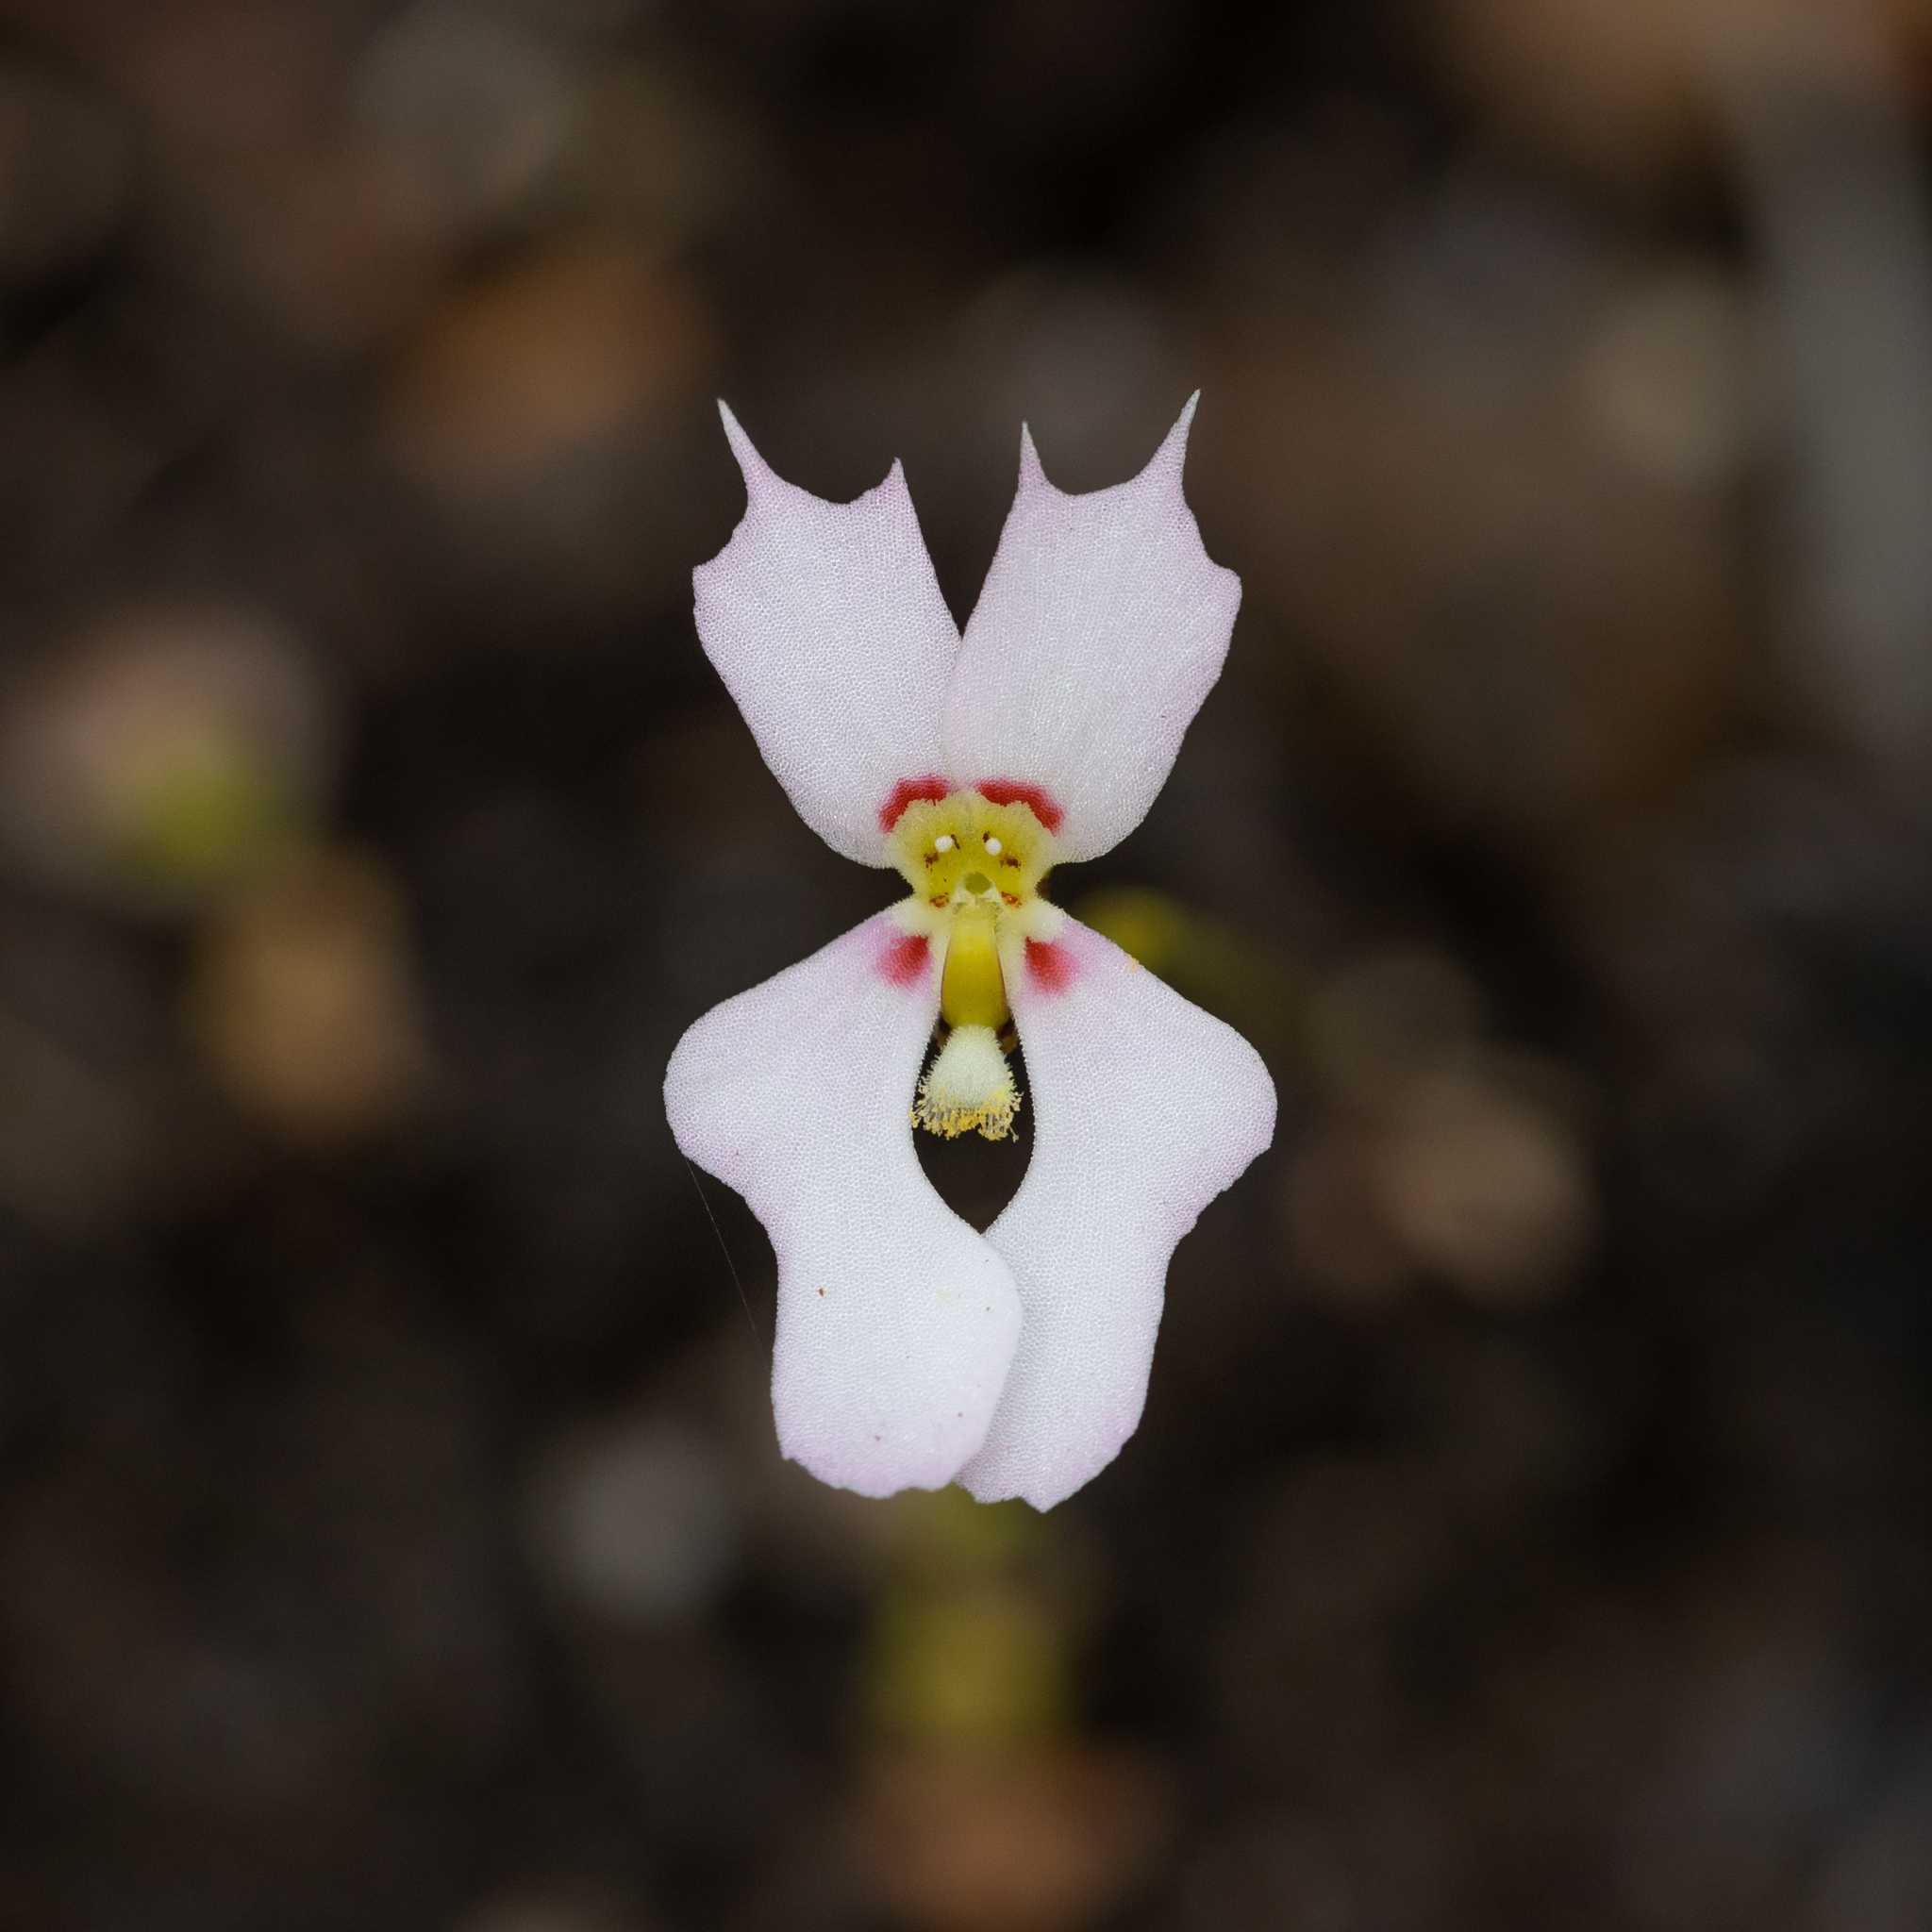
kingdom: Plantae
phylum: Tracheophyta
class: Magnoliopsida
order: Asterales
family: Stylidiaceae
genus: Stylidium
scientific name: Stylidium androsaceum
